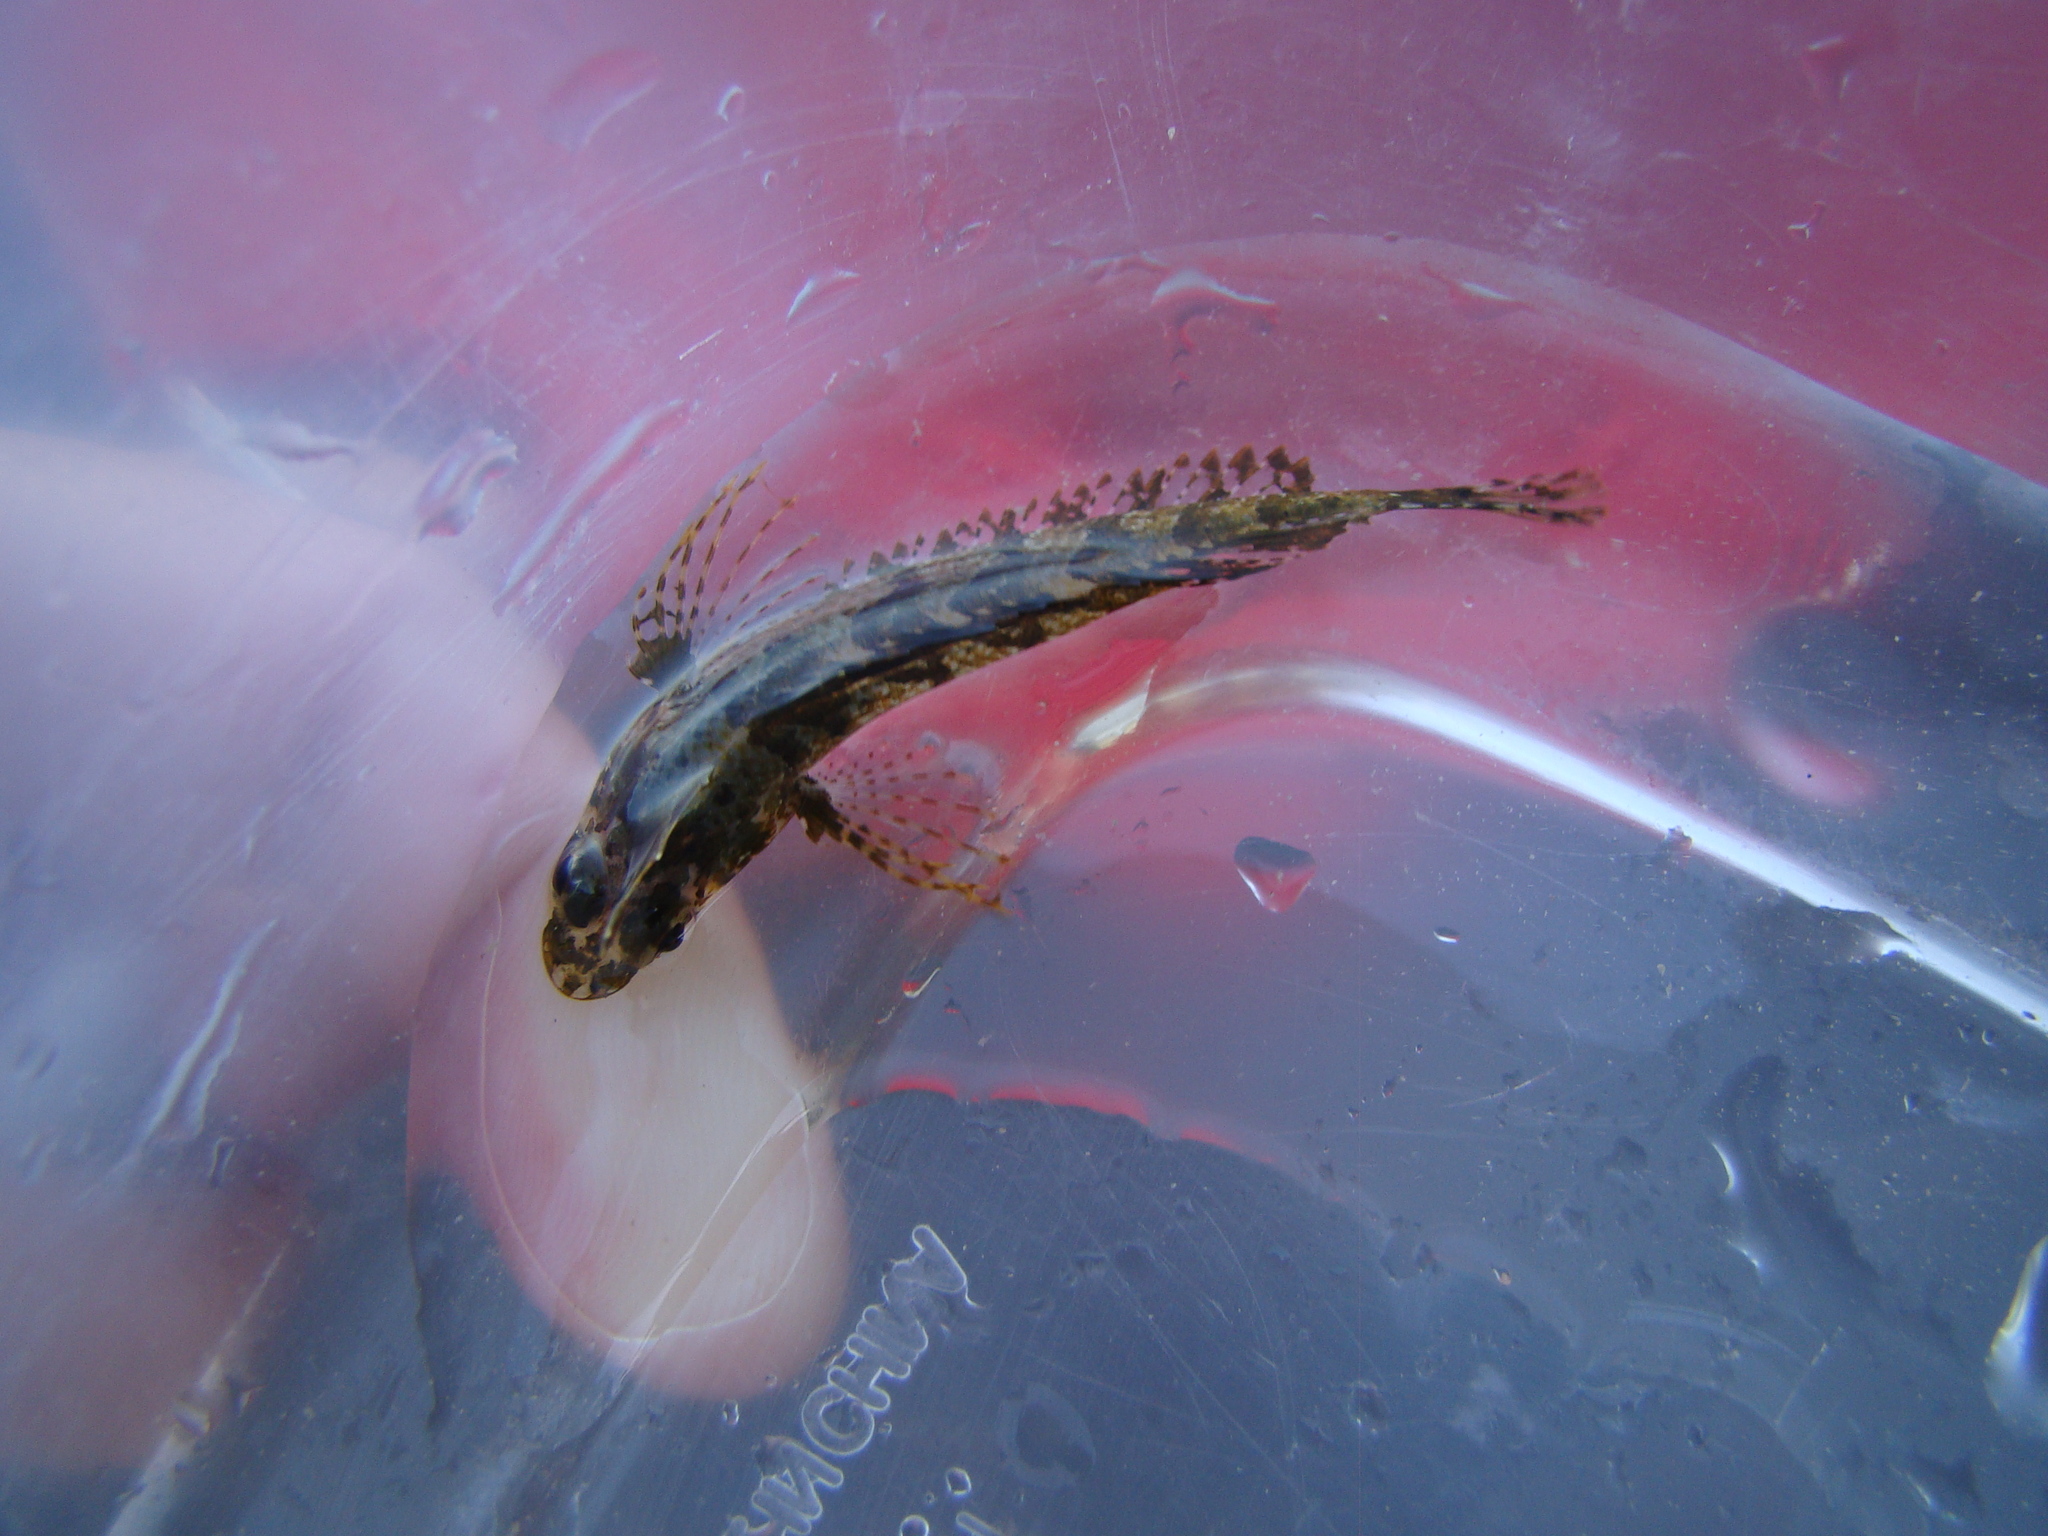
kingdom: Animalia
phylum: Chordata
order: Perciformes
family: Tripterygiidae
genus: Notoclinus
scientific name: Notoclinus fenestratus
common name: New zealand topknot
